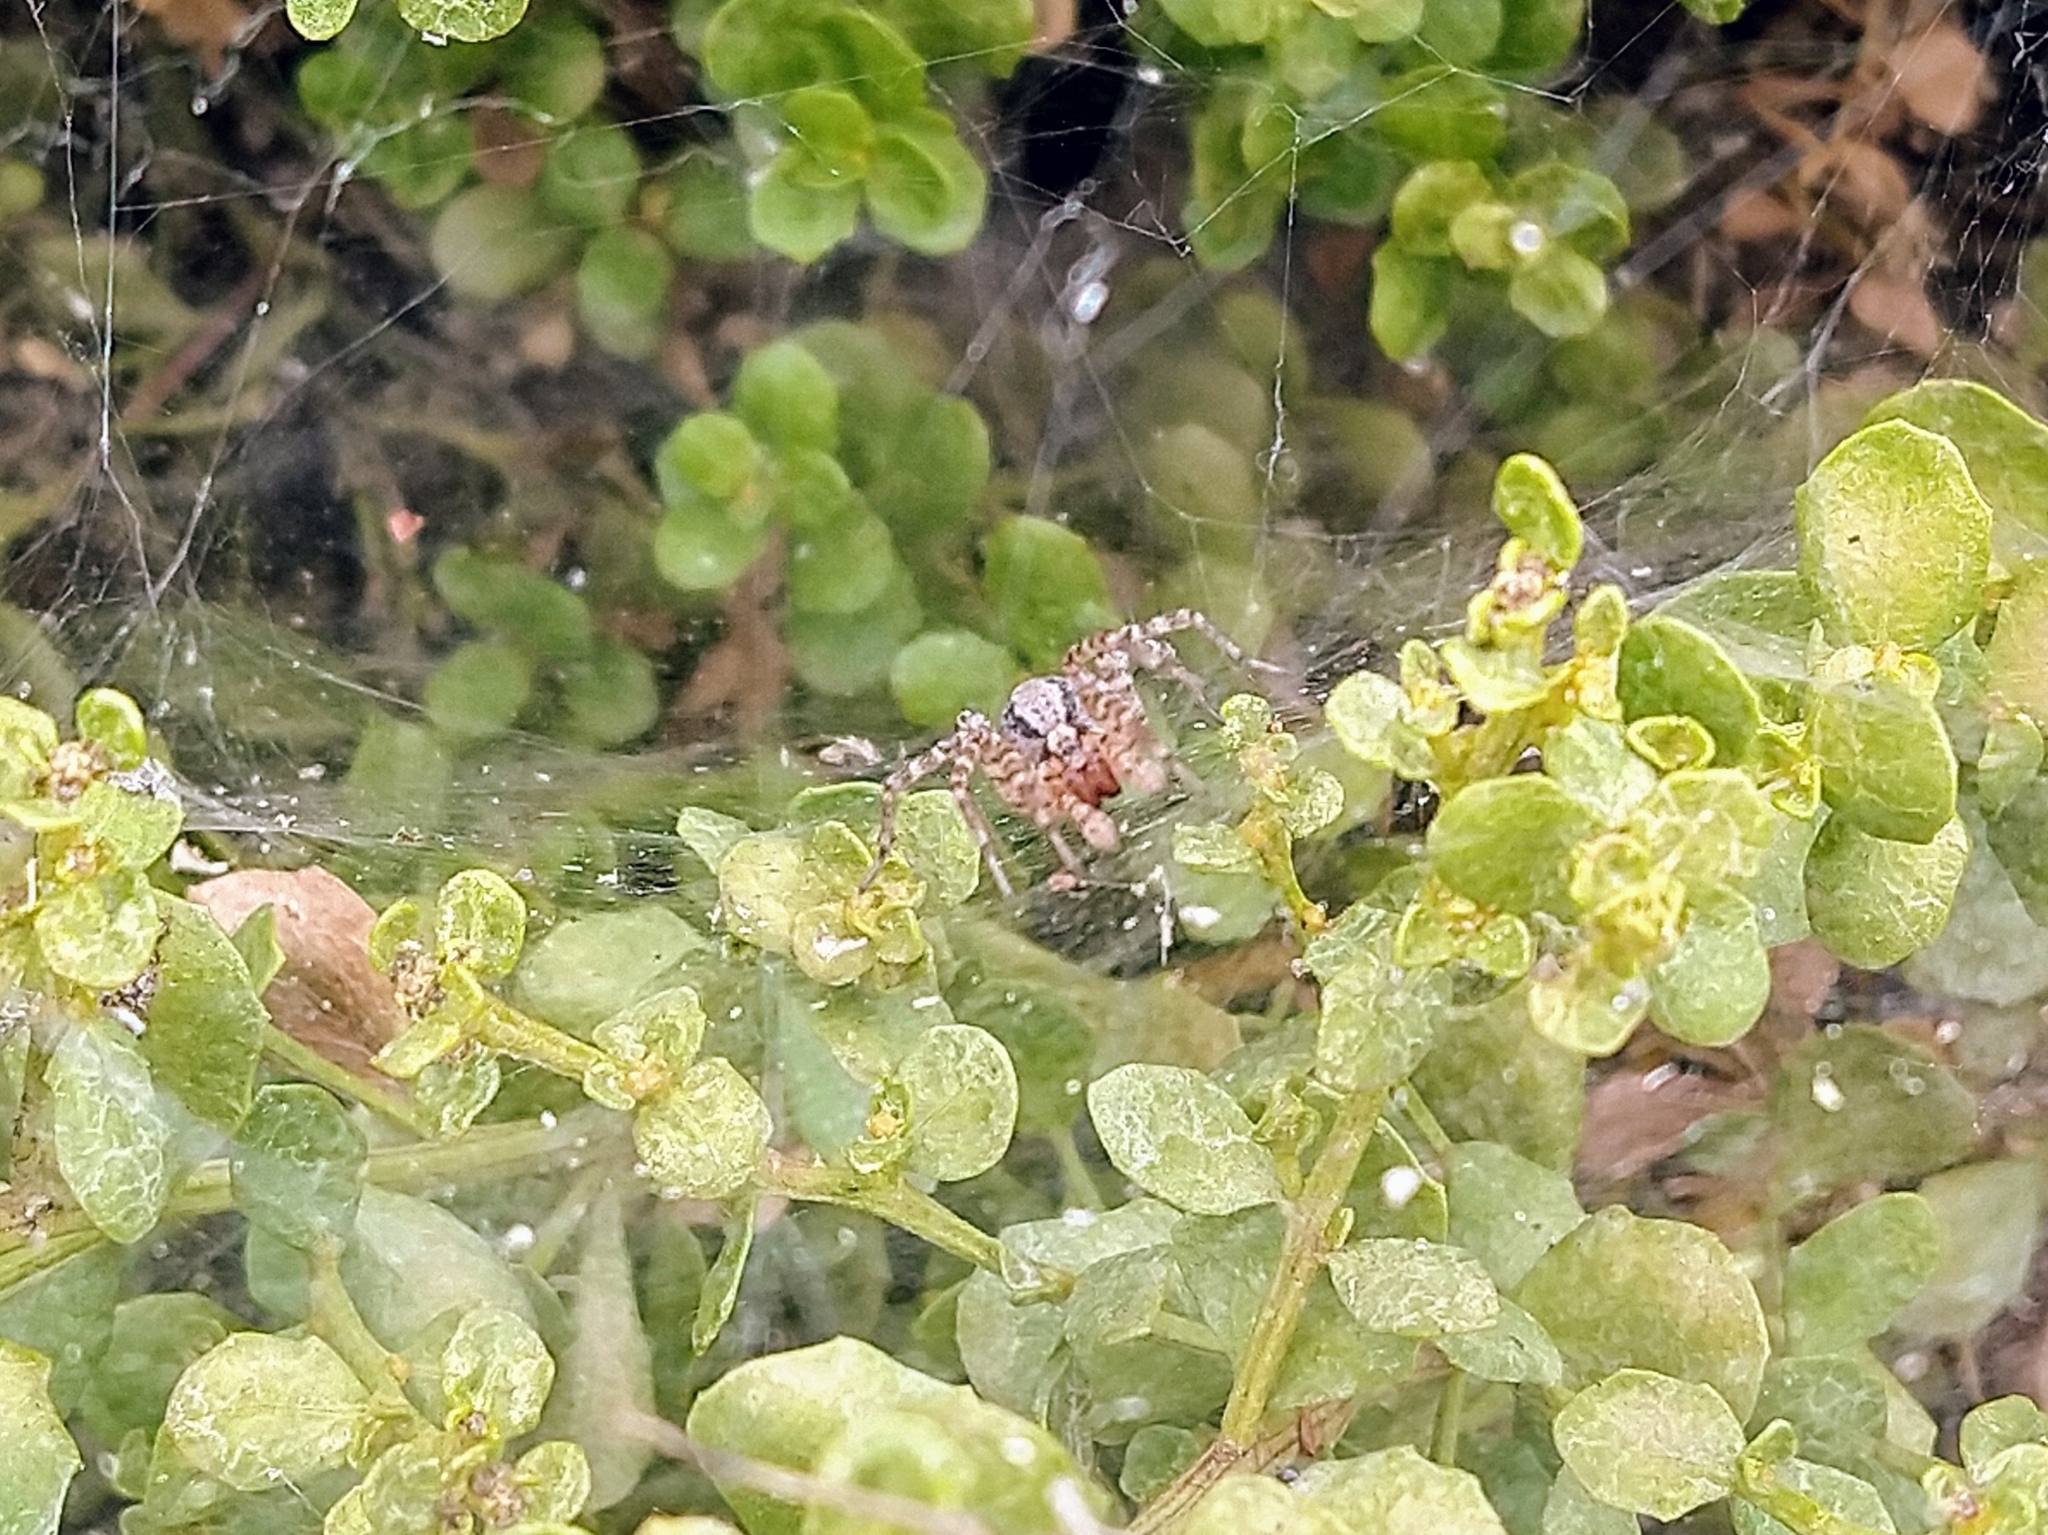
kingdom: Animalia
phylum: Arthropoda
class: Arachnida
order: Araneae
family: Agelenidae
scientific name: Agelenidae
